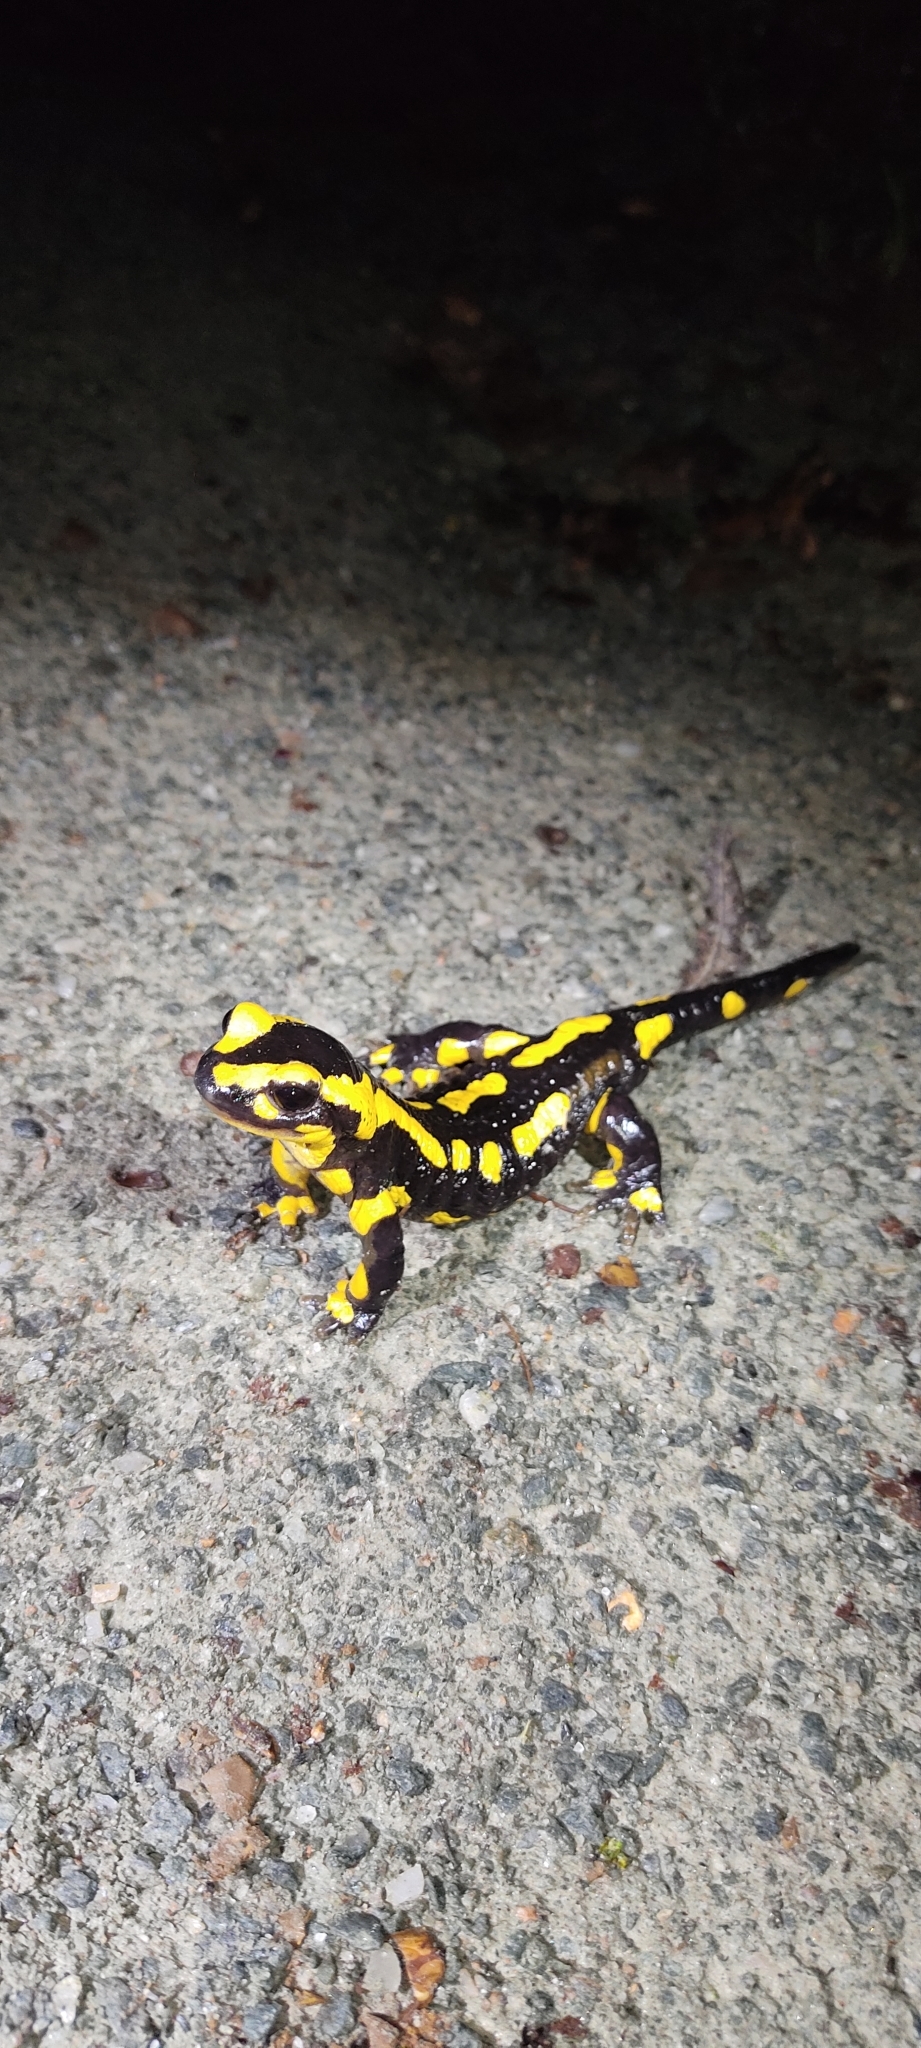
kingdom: Animalia
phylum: Chordata
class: Amphibia
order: Caudata
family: Salamandridae
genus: Salamandra
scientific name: Salamandra salamandra
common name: Fire salamander
